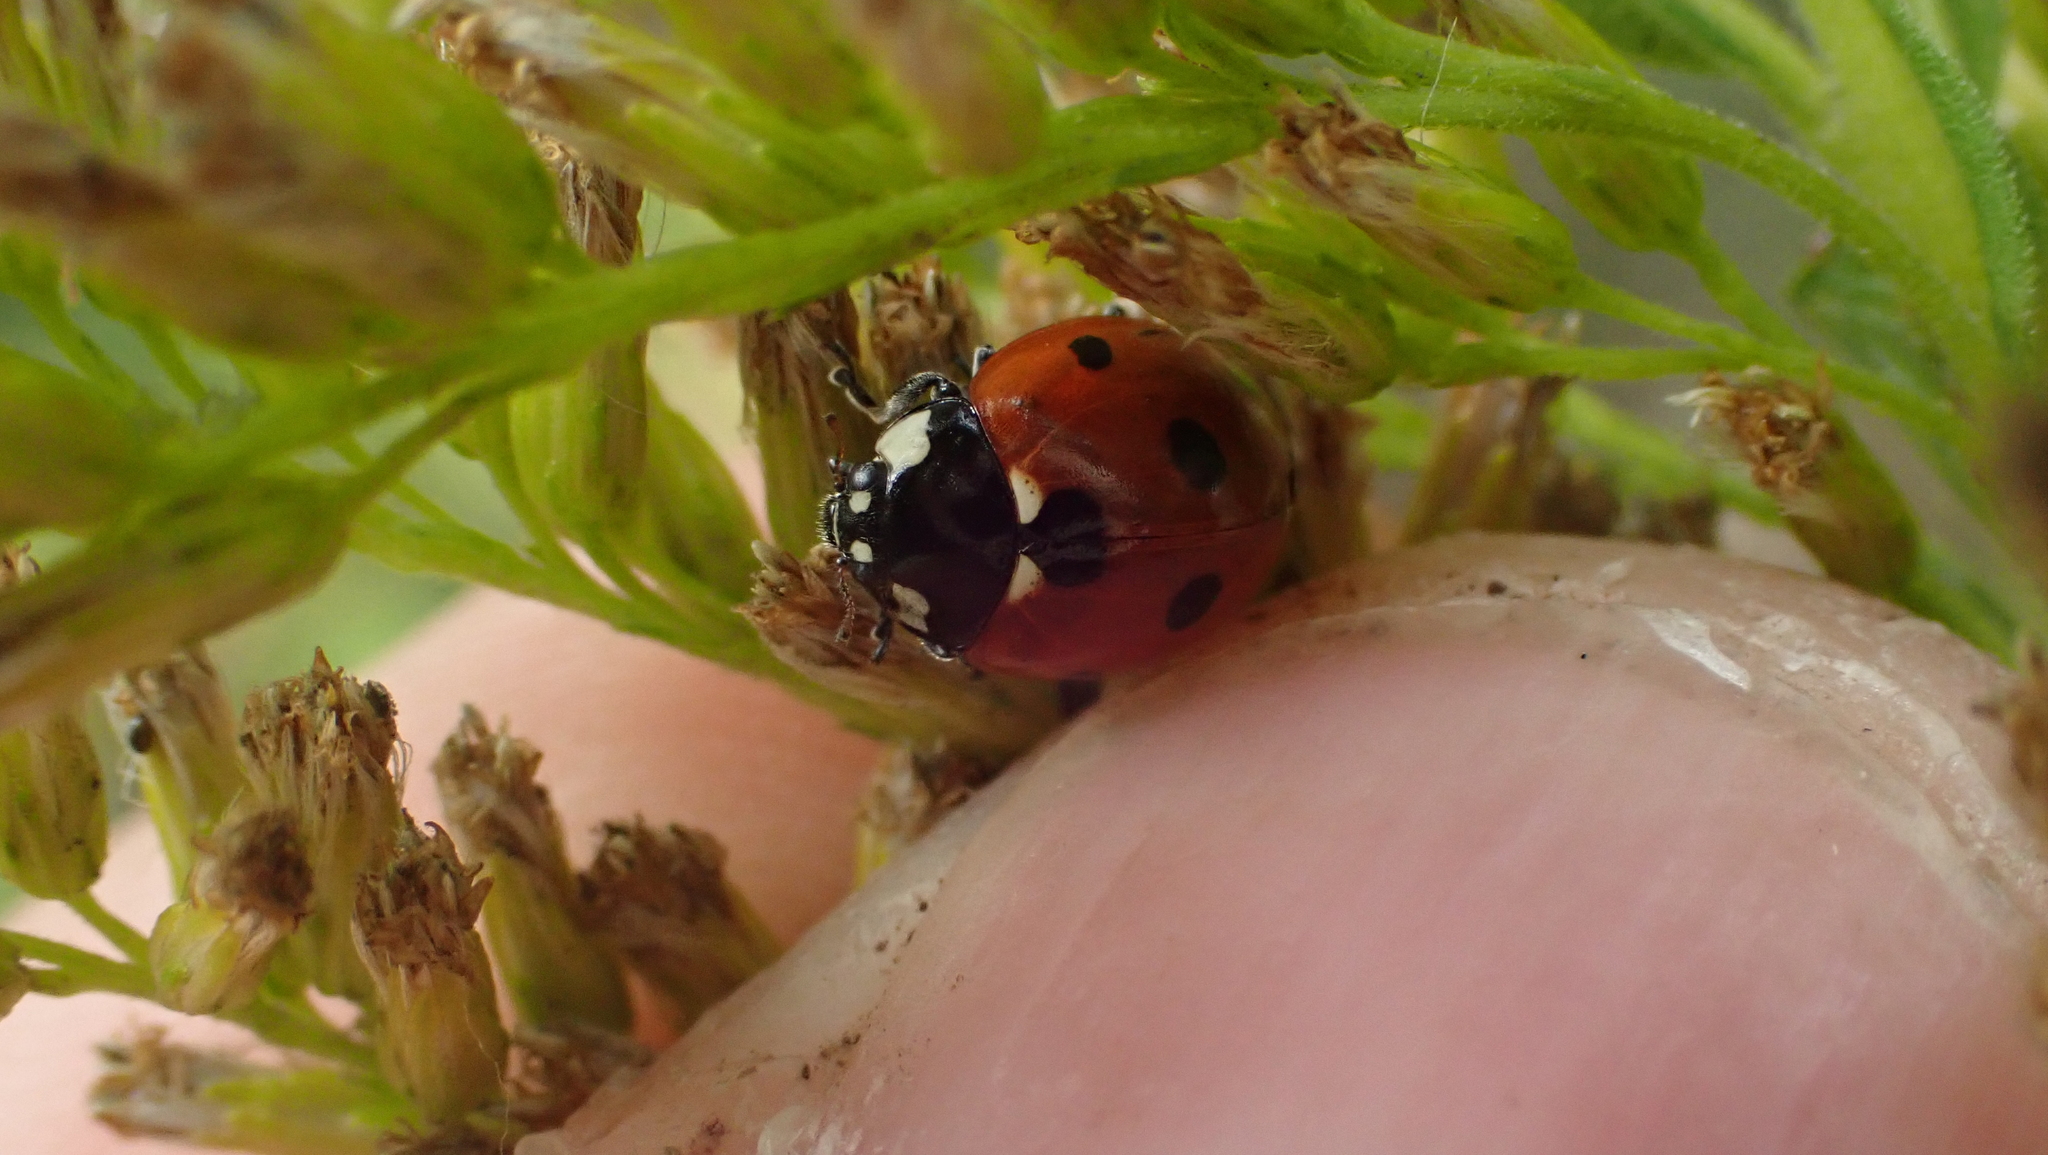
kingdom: Animalia
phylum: Arthropoda
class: Insecta
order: Coleoptera
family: Coccinellidae
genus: Coccinella
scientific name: Coccinella septempunctata
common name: Sevenspotted lady beetle
